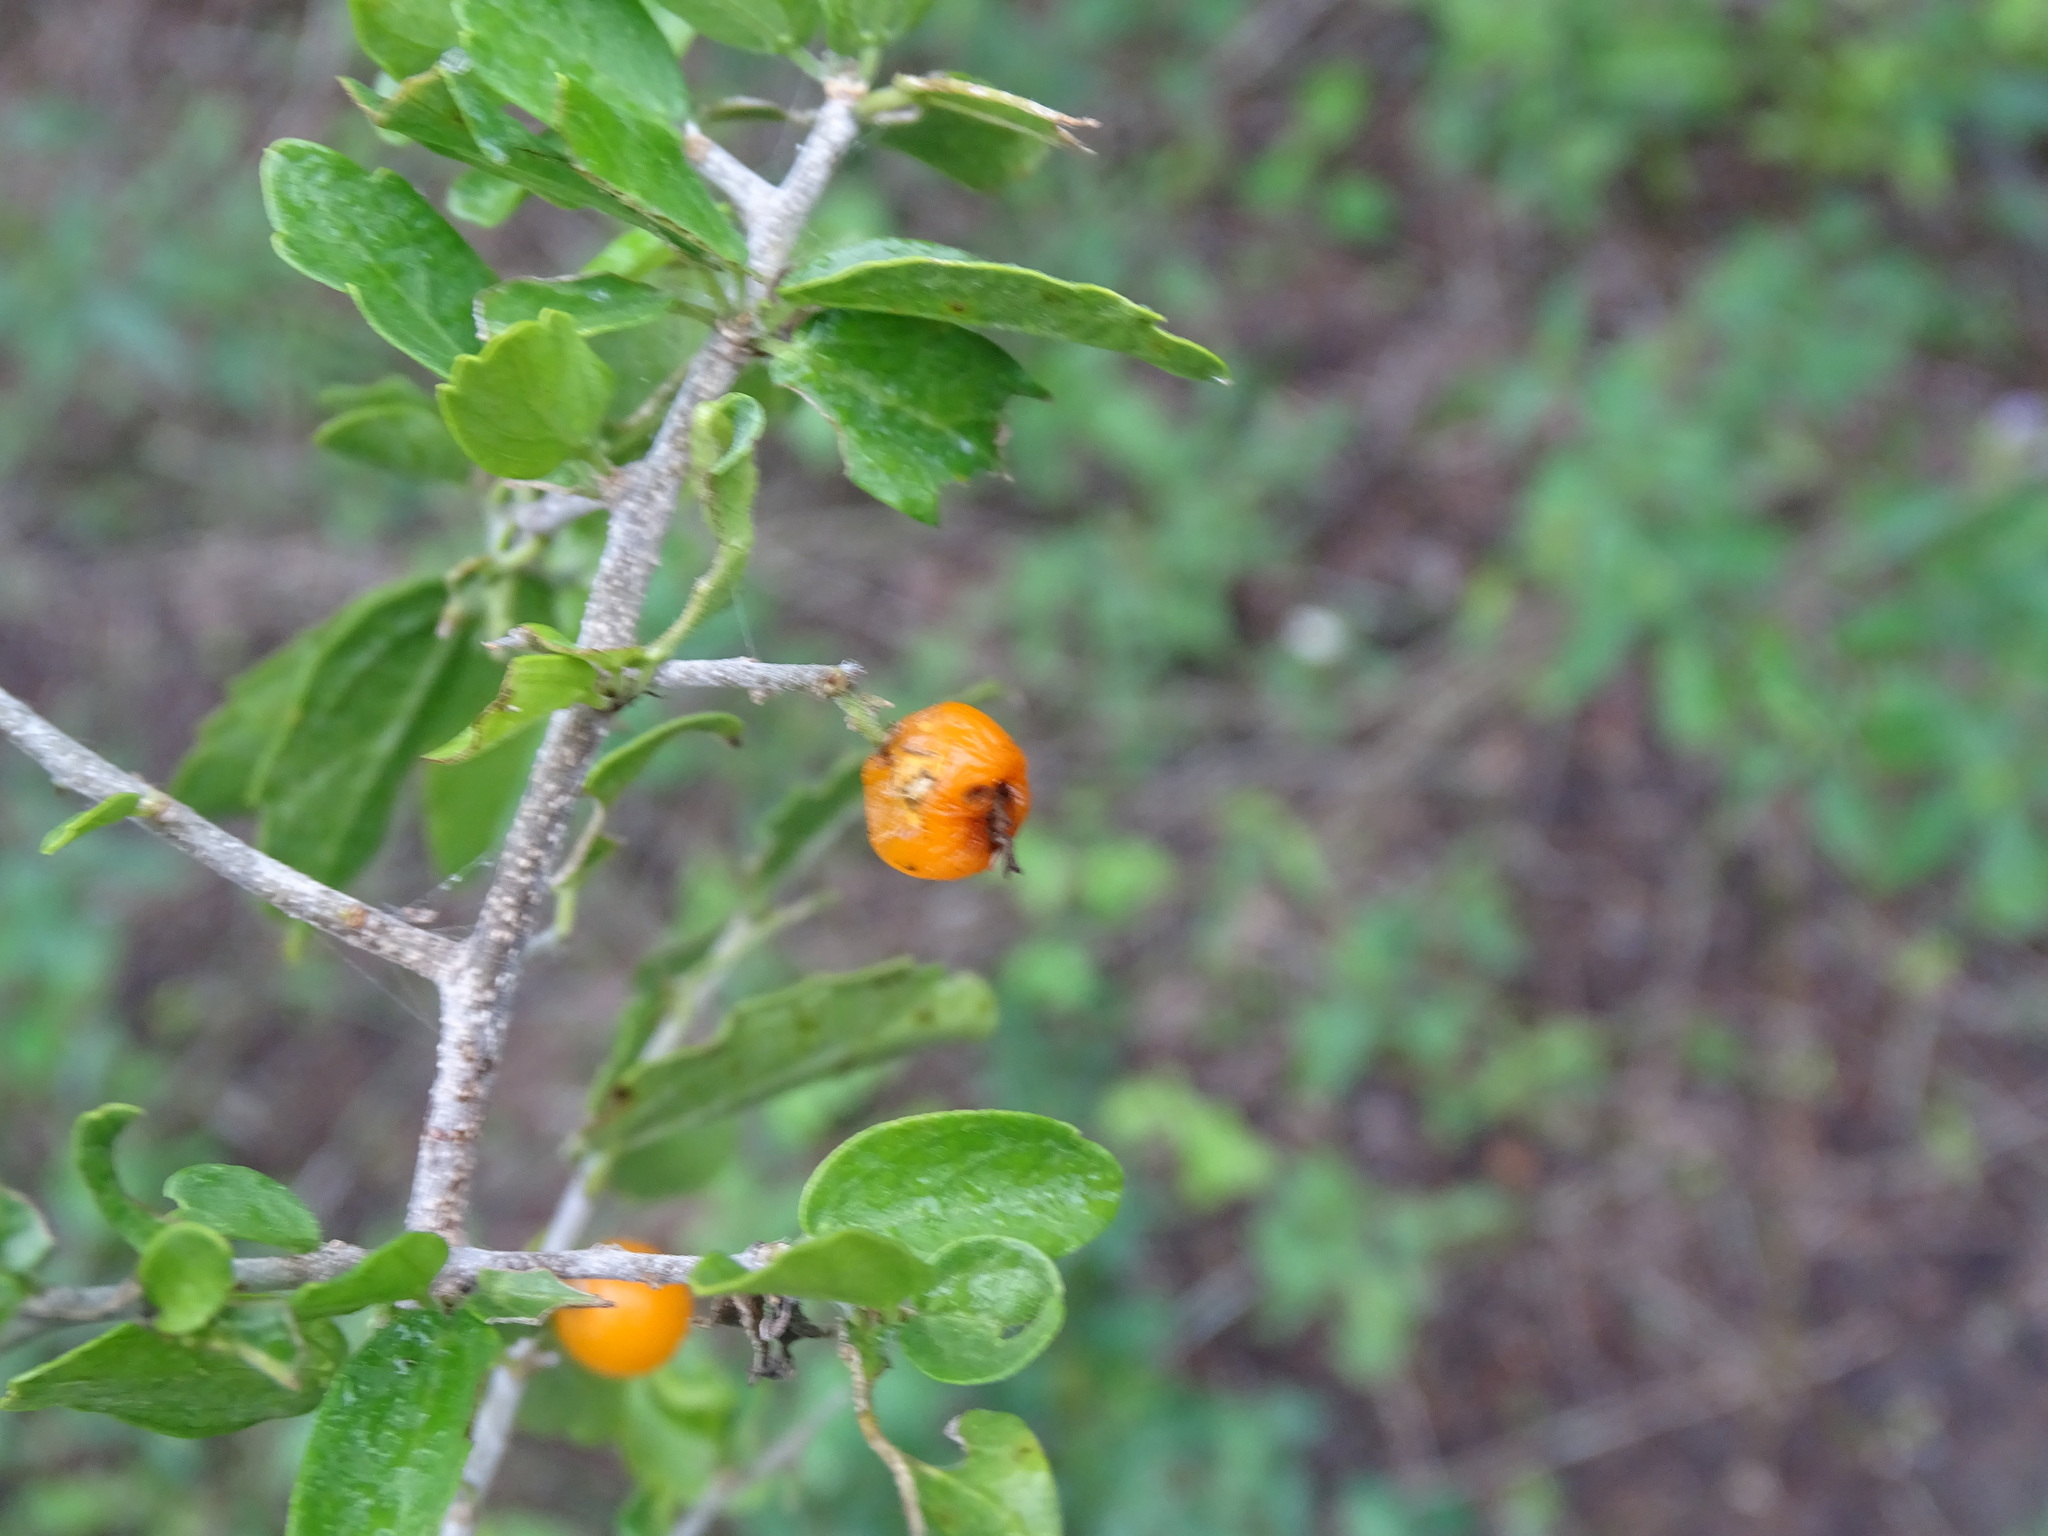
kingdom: Plantae
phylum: Tracheophyta
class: Magnoliopsida
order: Rosales
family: Cannabaceae
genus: Celtis
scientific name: Celtis pallida
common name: Desert hackberry
